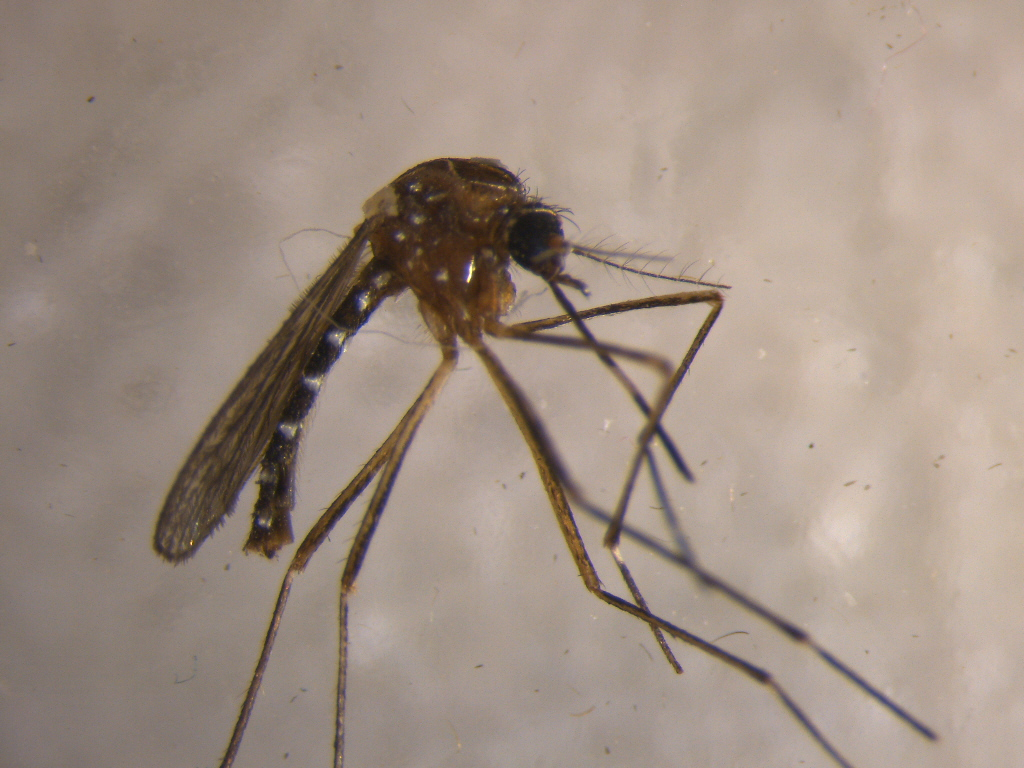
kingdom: Animalia
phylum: Arthropoda
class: Insecta
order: Diptera
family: Culicidae
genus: Aedes
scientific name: Aedes notoscriptus
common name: Australian backyard mosquito
